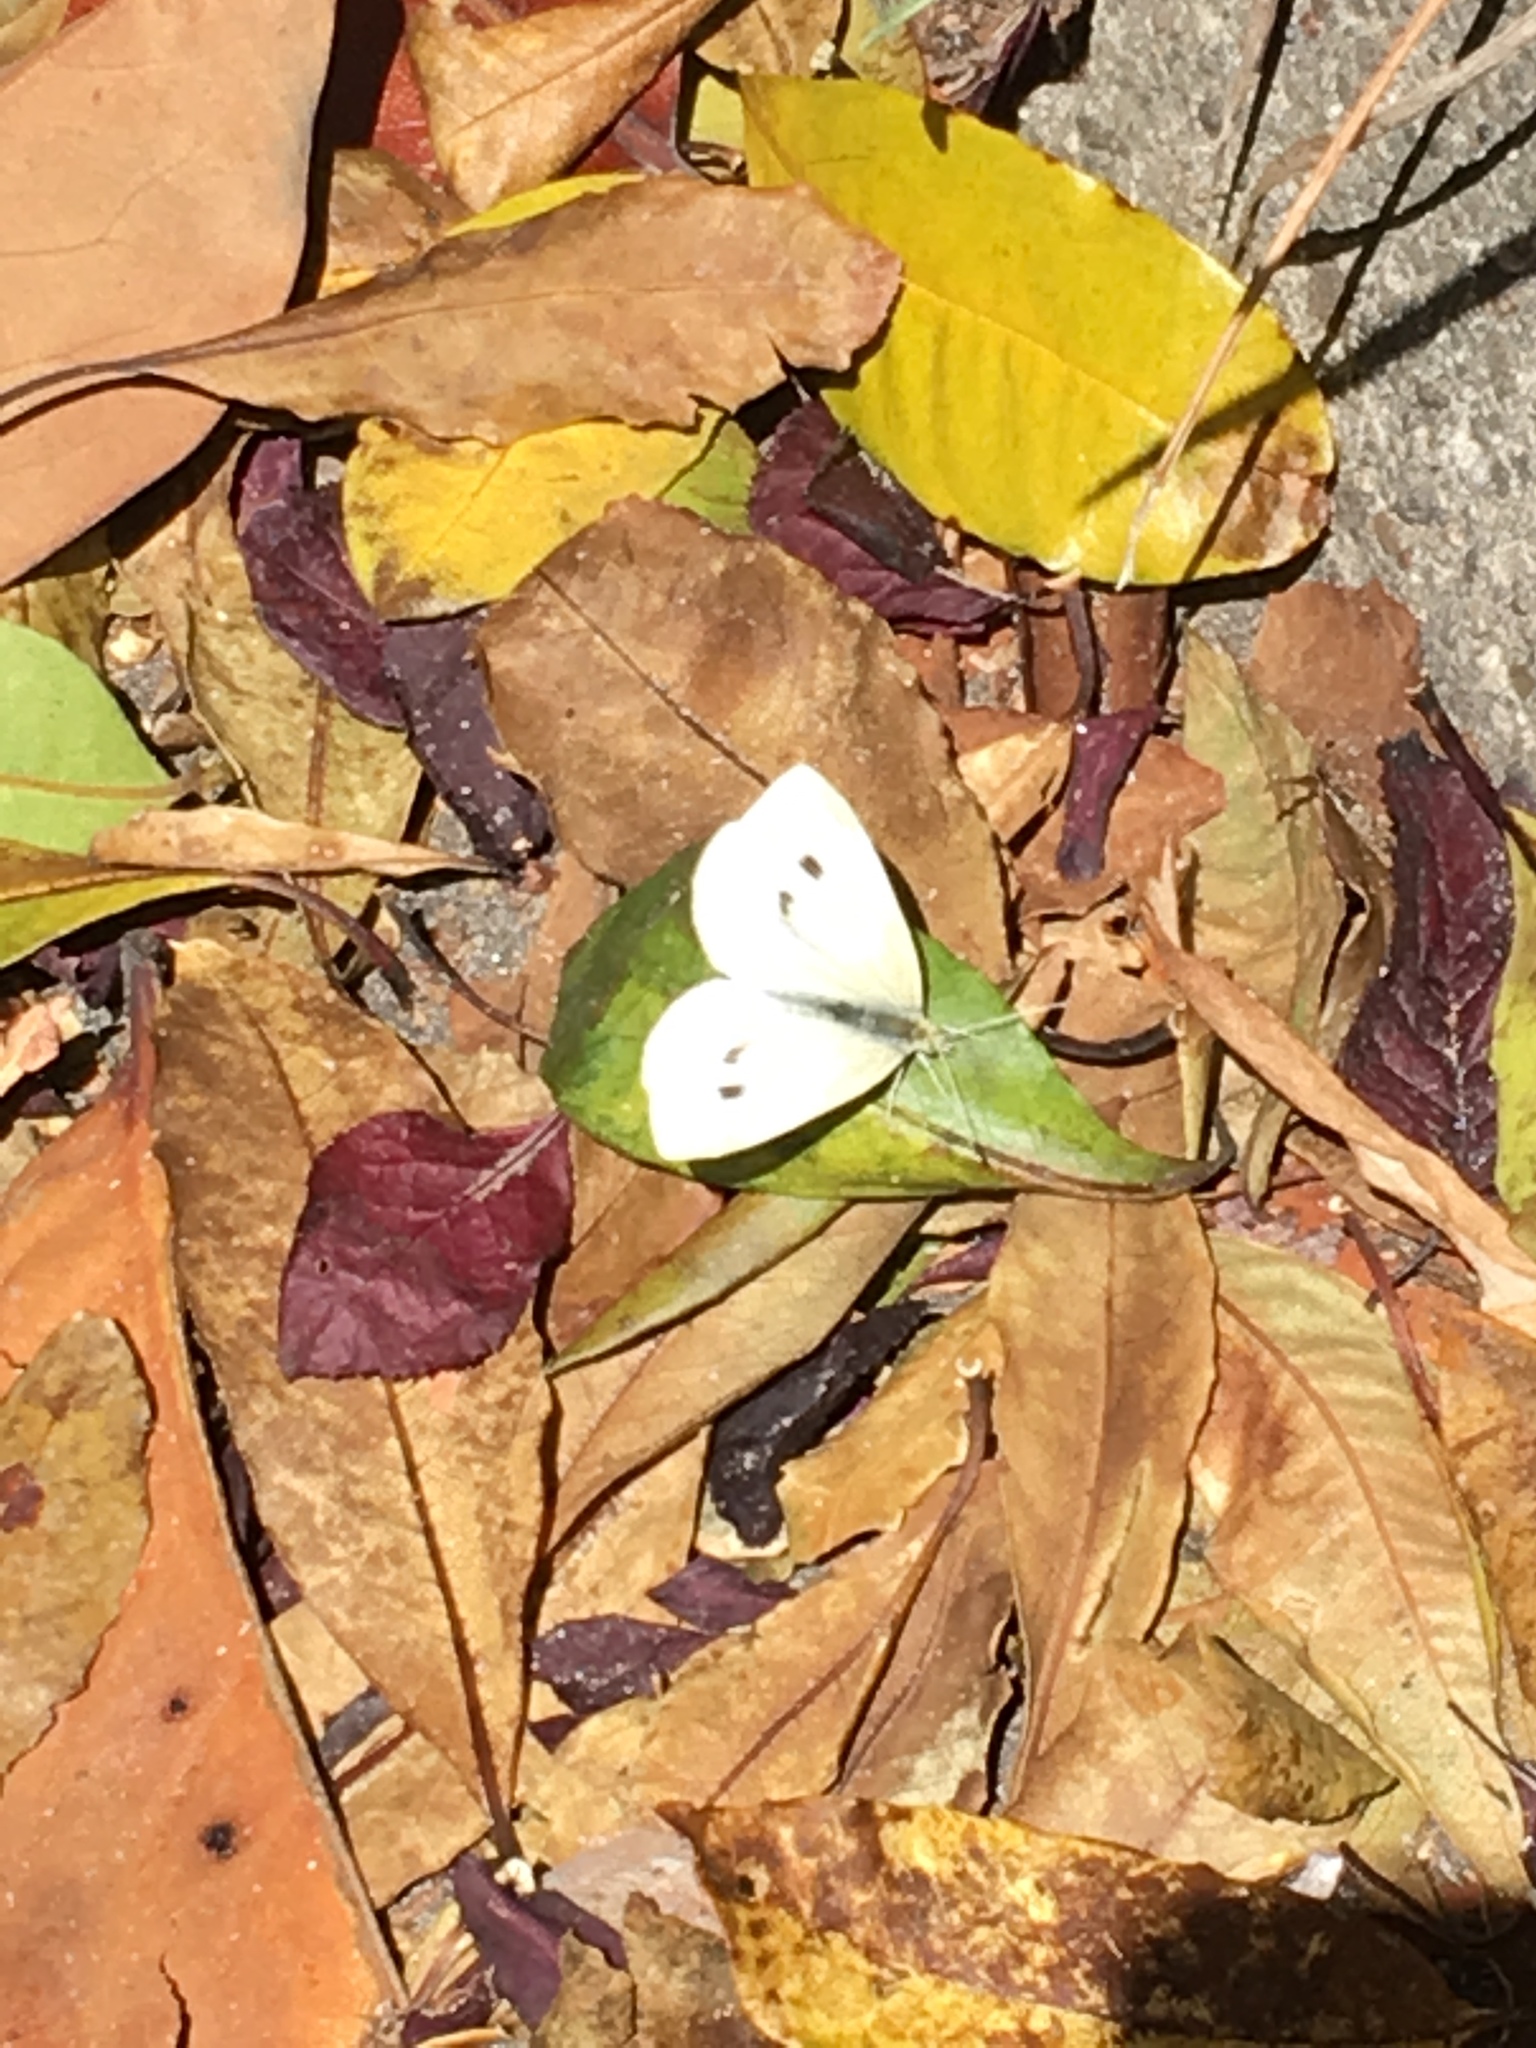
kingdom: Animalia
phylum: Arthropoda
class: Insecta
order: Lepidoptera
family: Pieridae
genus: Pieris
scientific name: Pieris rapae
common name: Small white
